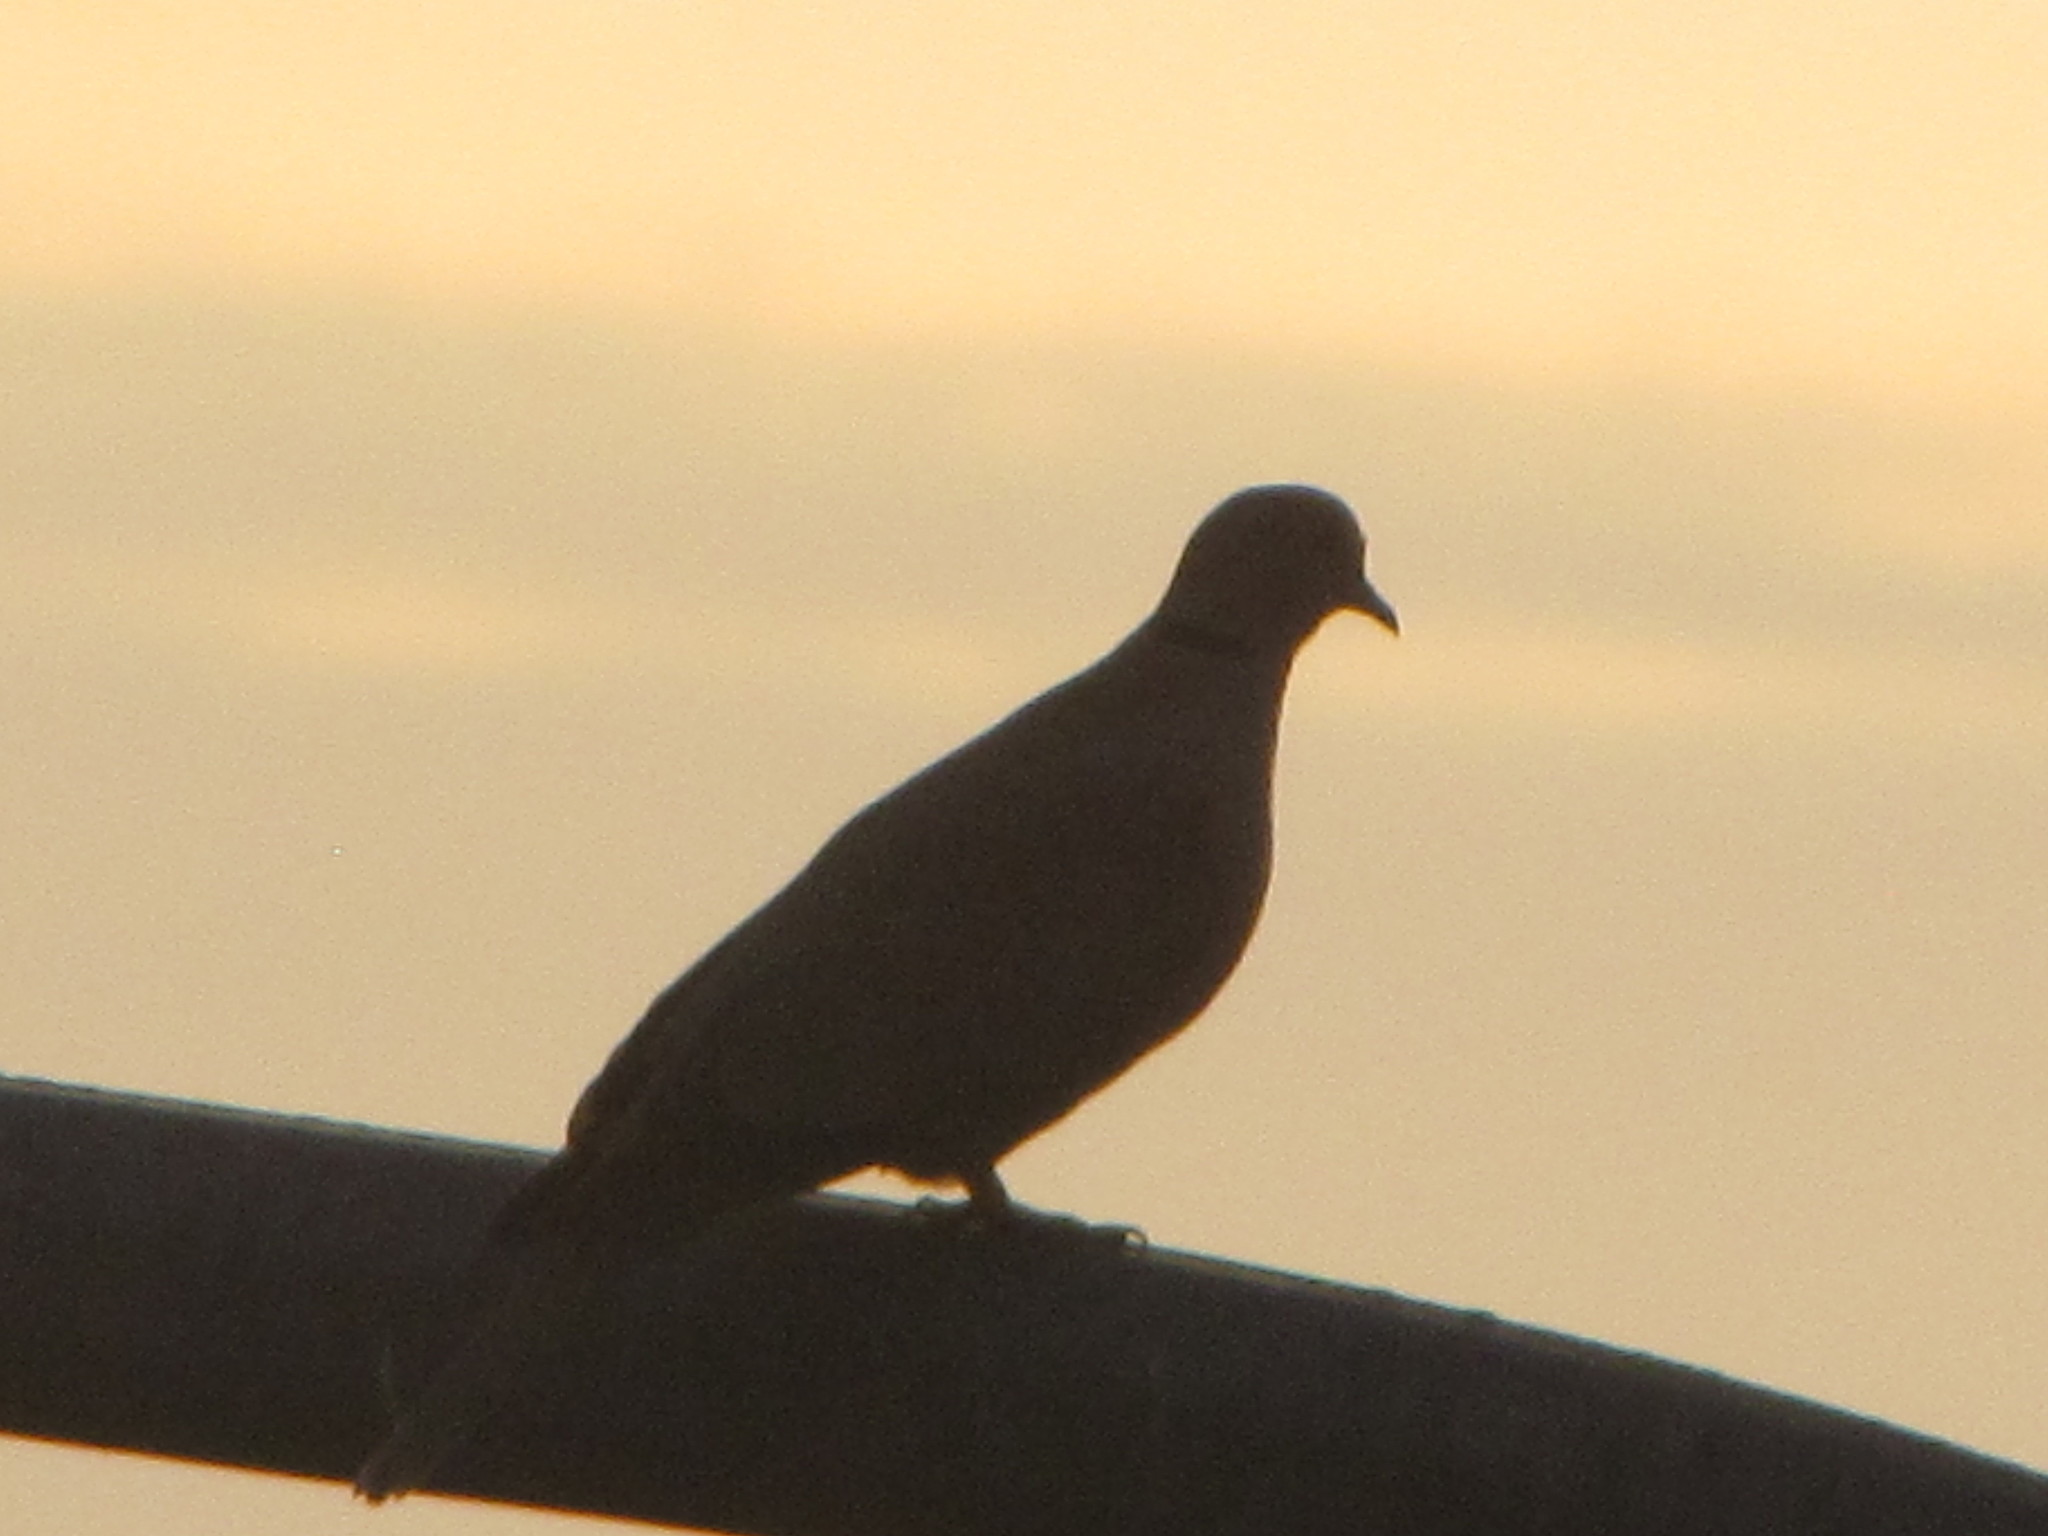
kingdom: Animalia
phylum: Chordata
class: Aves
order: Columbiformes
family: Columbidae
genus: Streptopelia
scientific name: Streptopelia decaocto
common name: Eurasian collared dove
